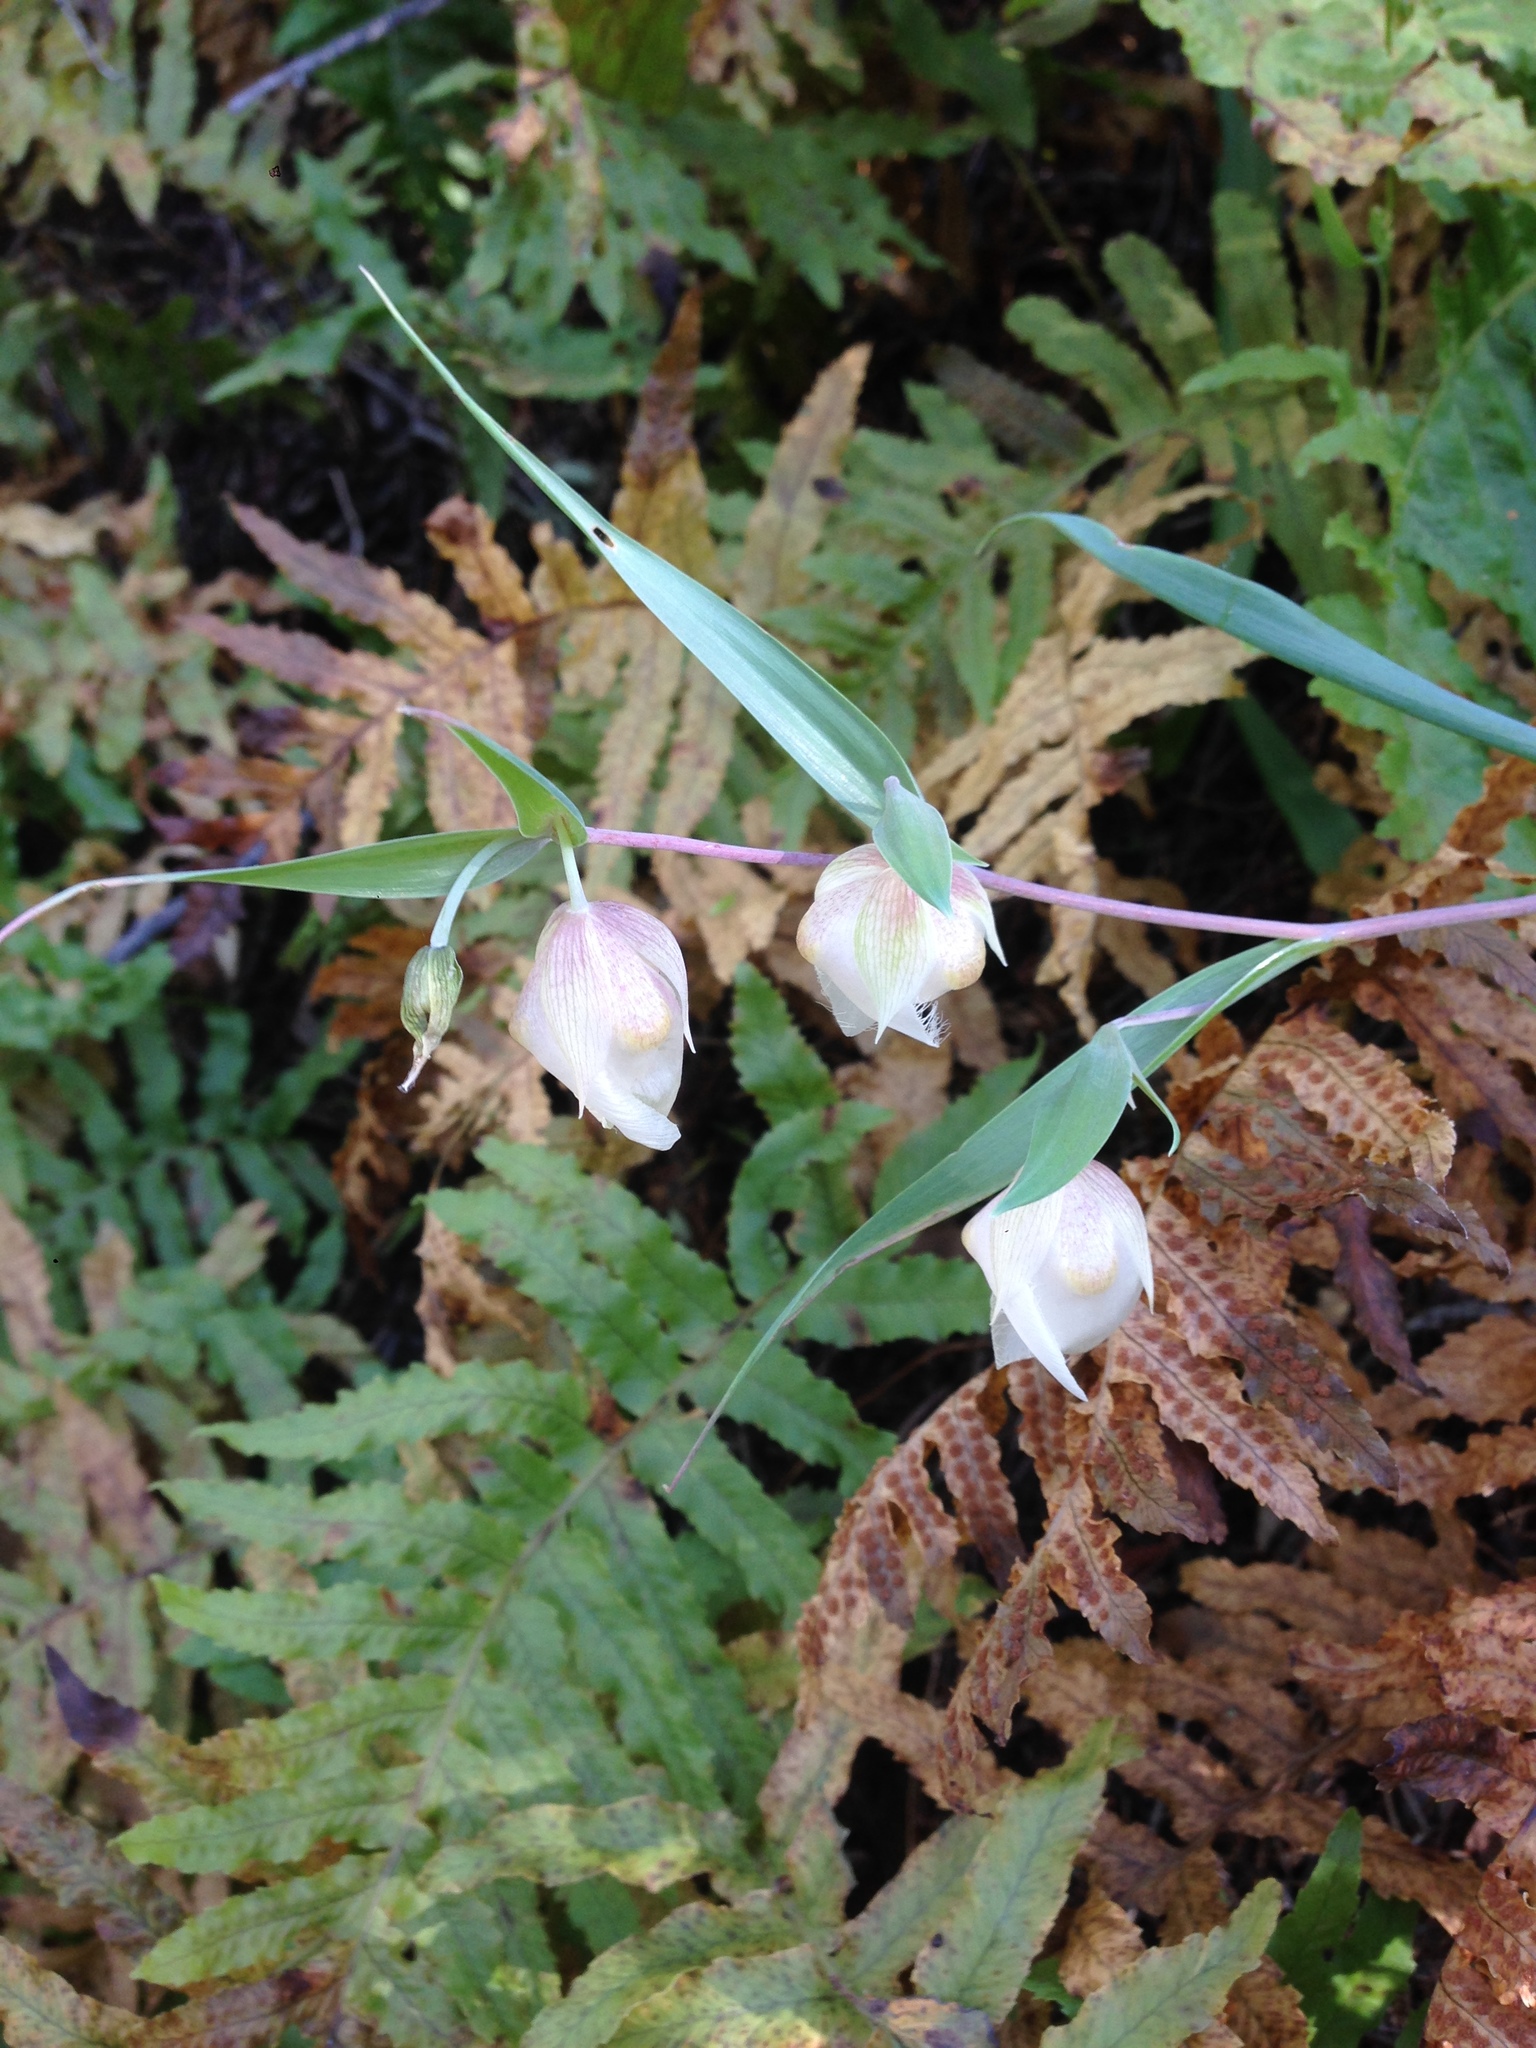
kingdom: Plantae
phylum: Tracheophyta
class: Liliopsida
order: Liliales
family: Liliaceae
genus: Calochortus
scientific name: Calochortus albus
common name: Fairy-lantern
